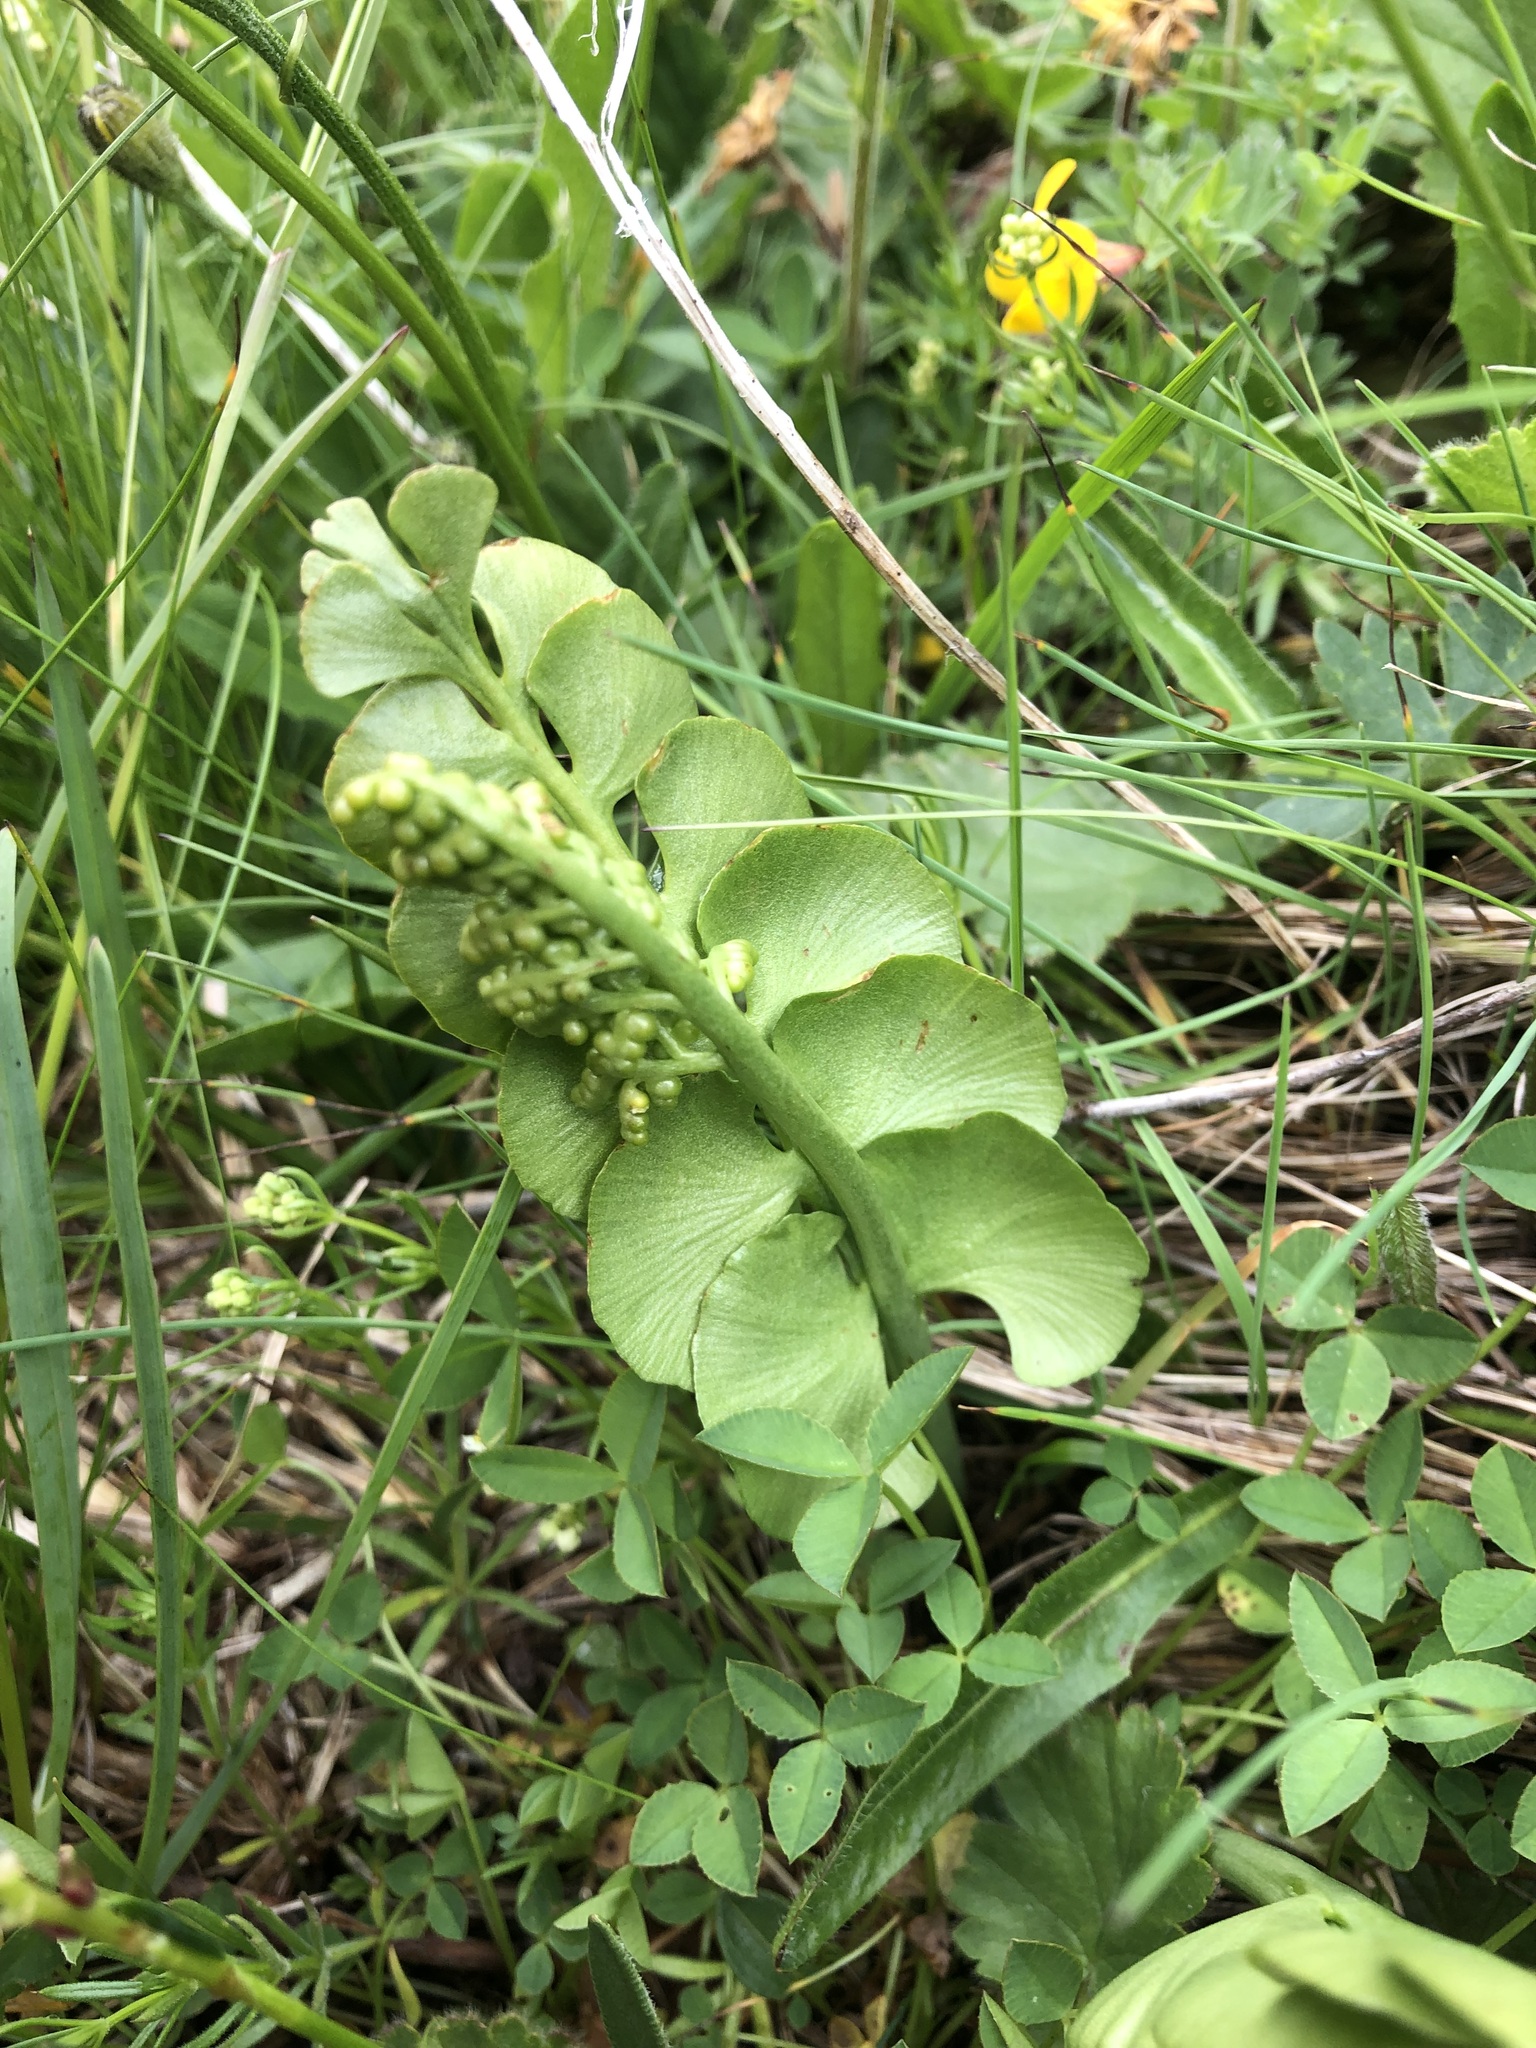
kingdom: Plantae
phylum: Tracheophyta
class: Polypodiopsida
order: Ophioglossales
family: Ophioglossaceae
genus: Botrychium
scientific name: Botrychium lunaria
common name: Moonwort
